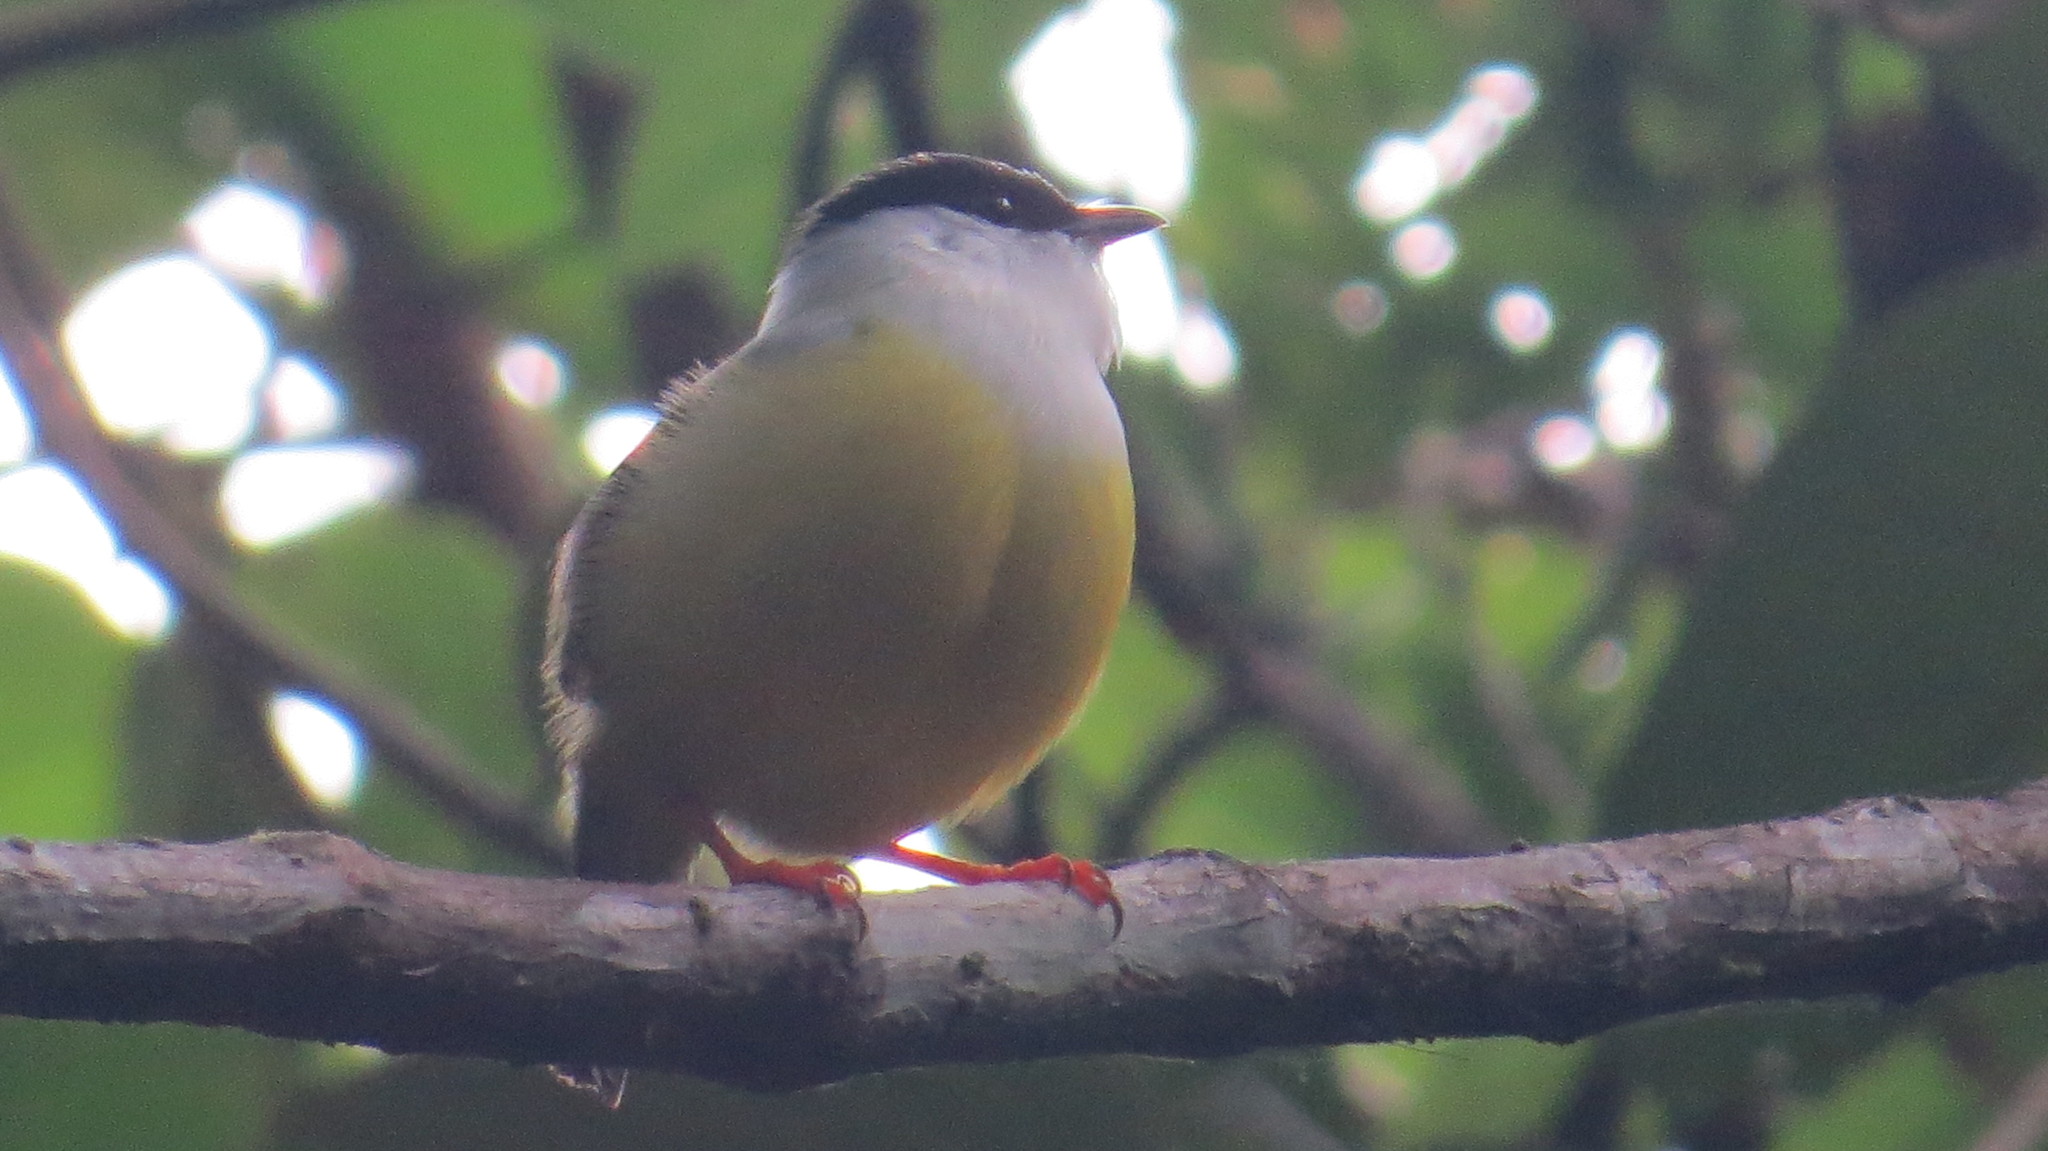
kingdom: Animalia
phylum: Chordata
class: Aves
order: Passeriformes
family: Pipridae
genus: Manacus
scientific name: Manacus candei
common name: White-collared manakin
